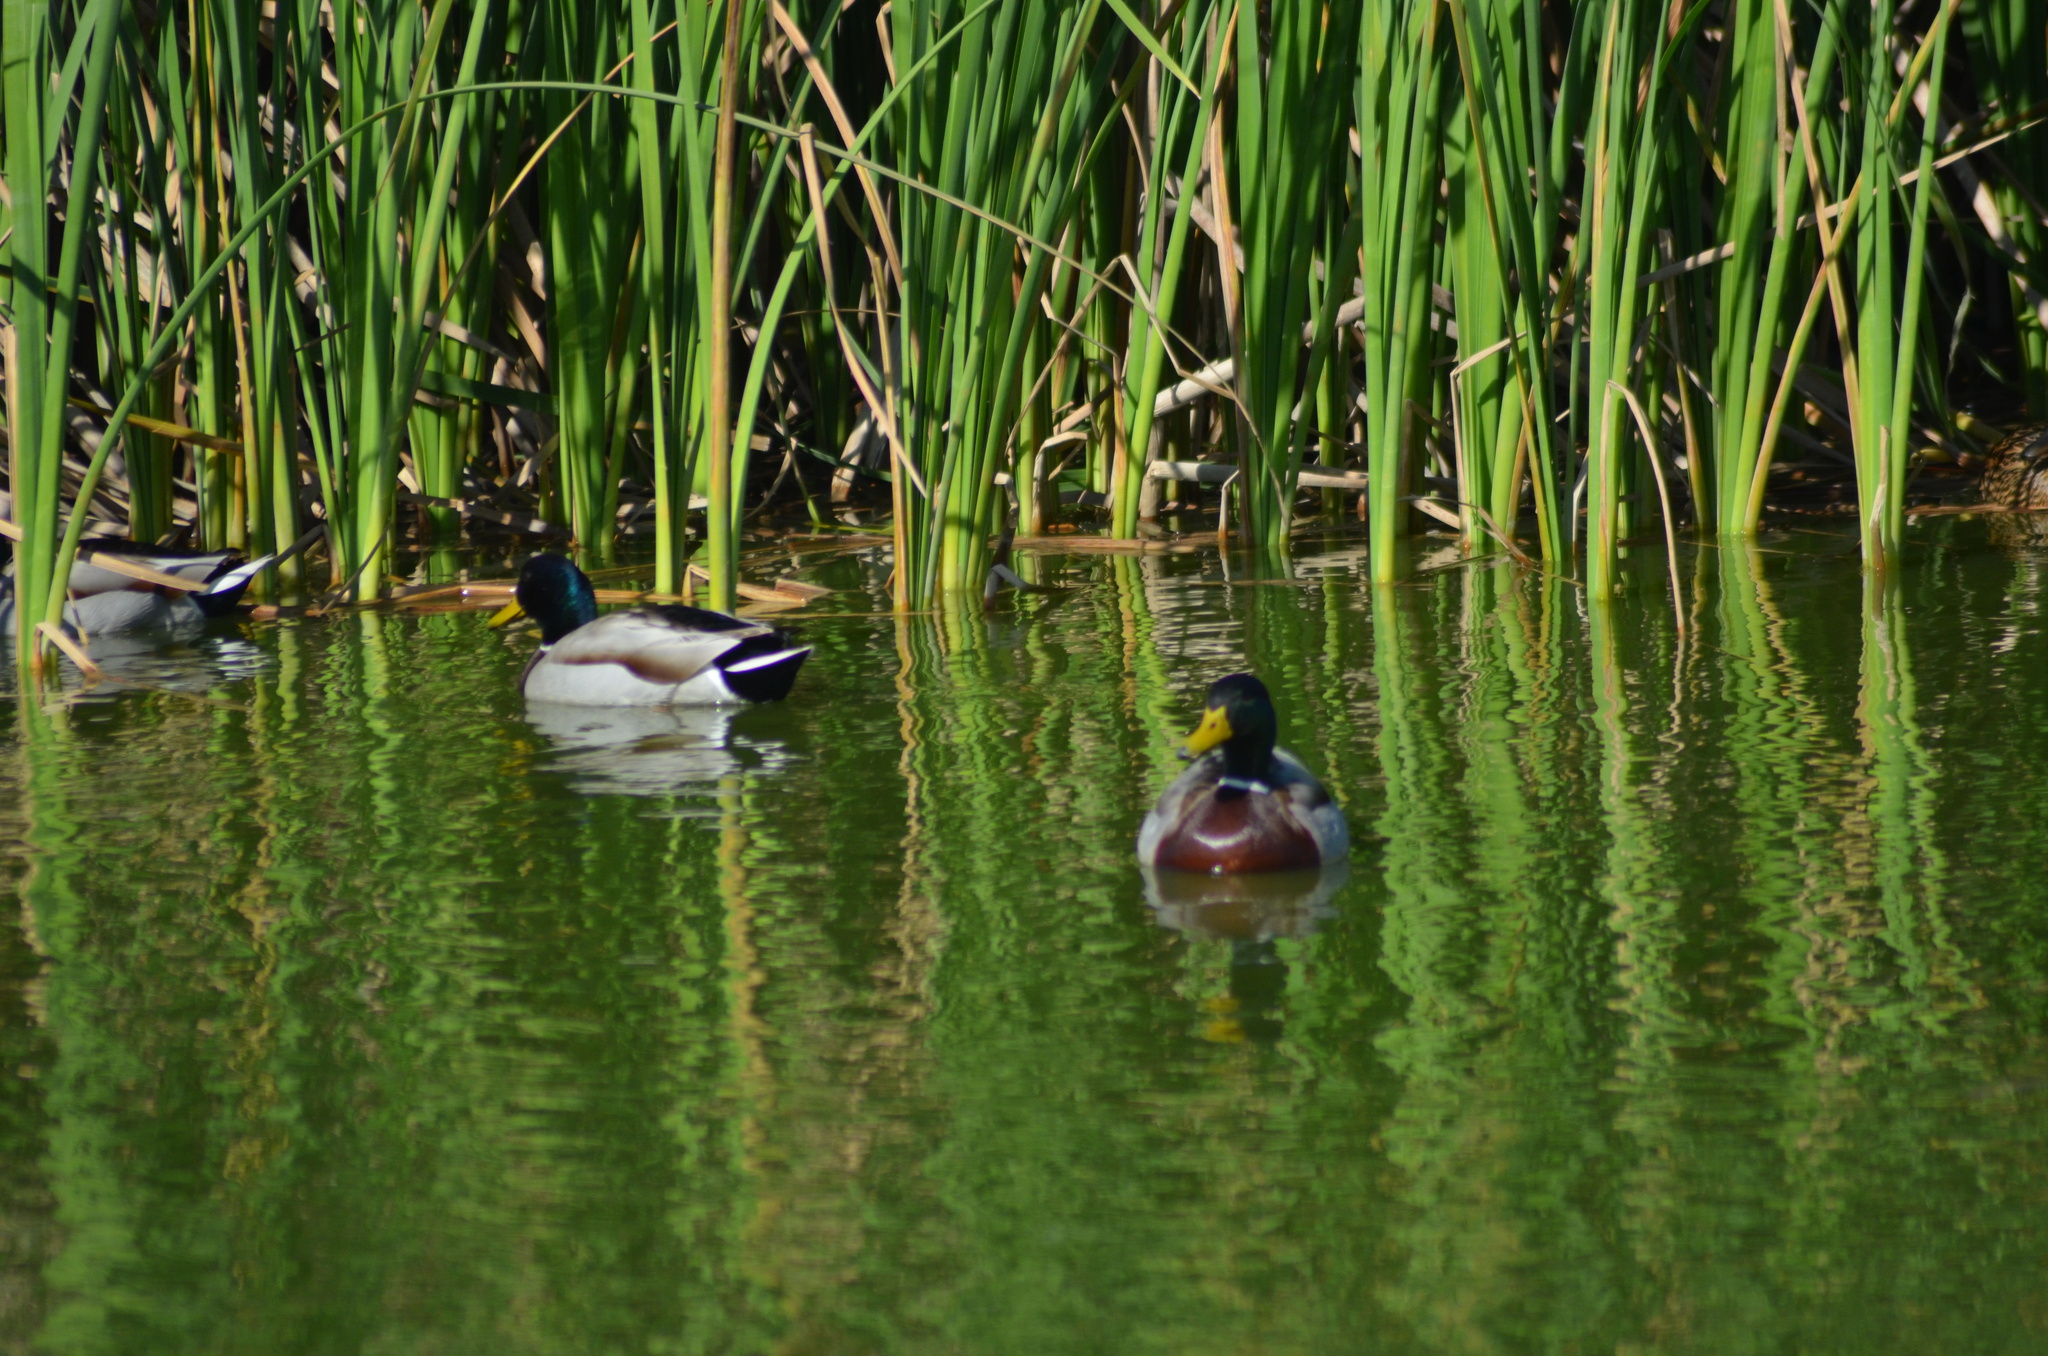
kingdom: Animalia
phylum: Chordata
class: Aves
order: Anseriformes
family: Anatidae
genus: Anas
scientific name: Anas platyrhynchos
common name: Mallard
